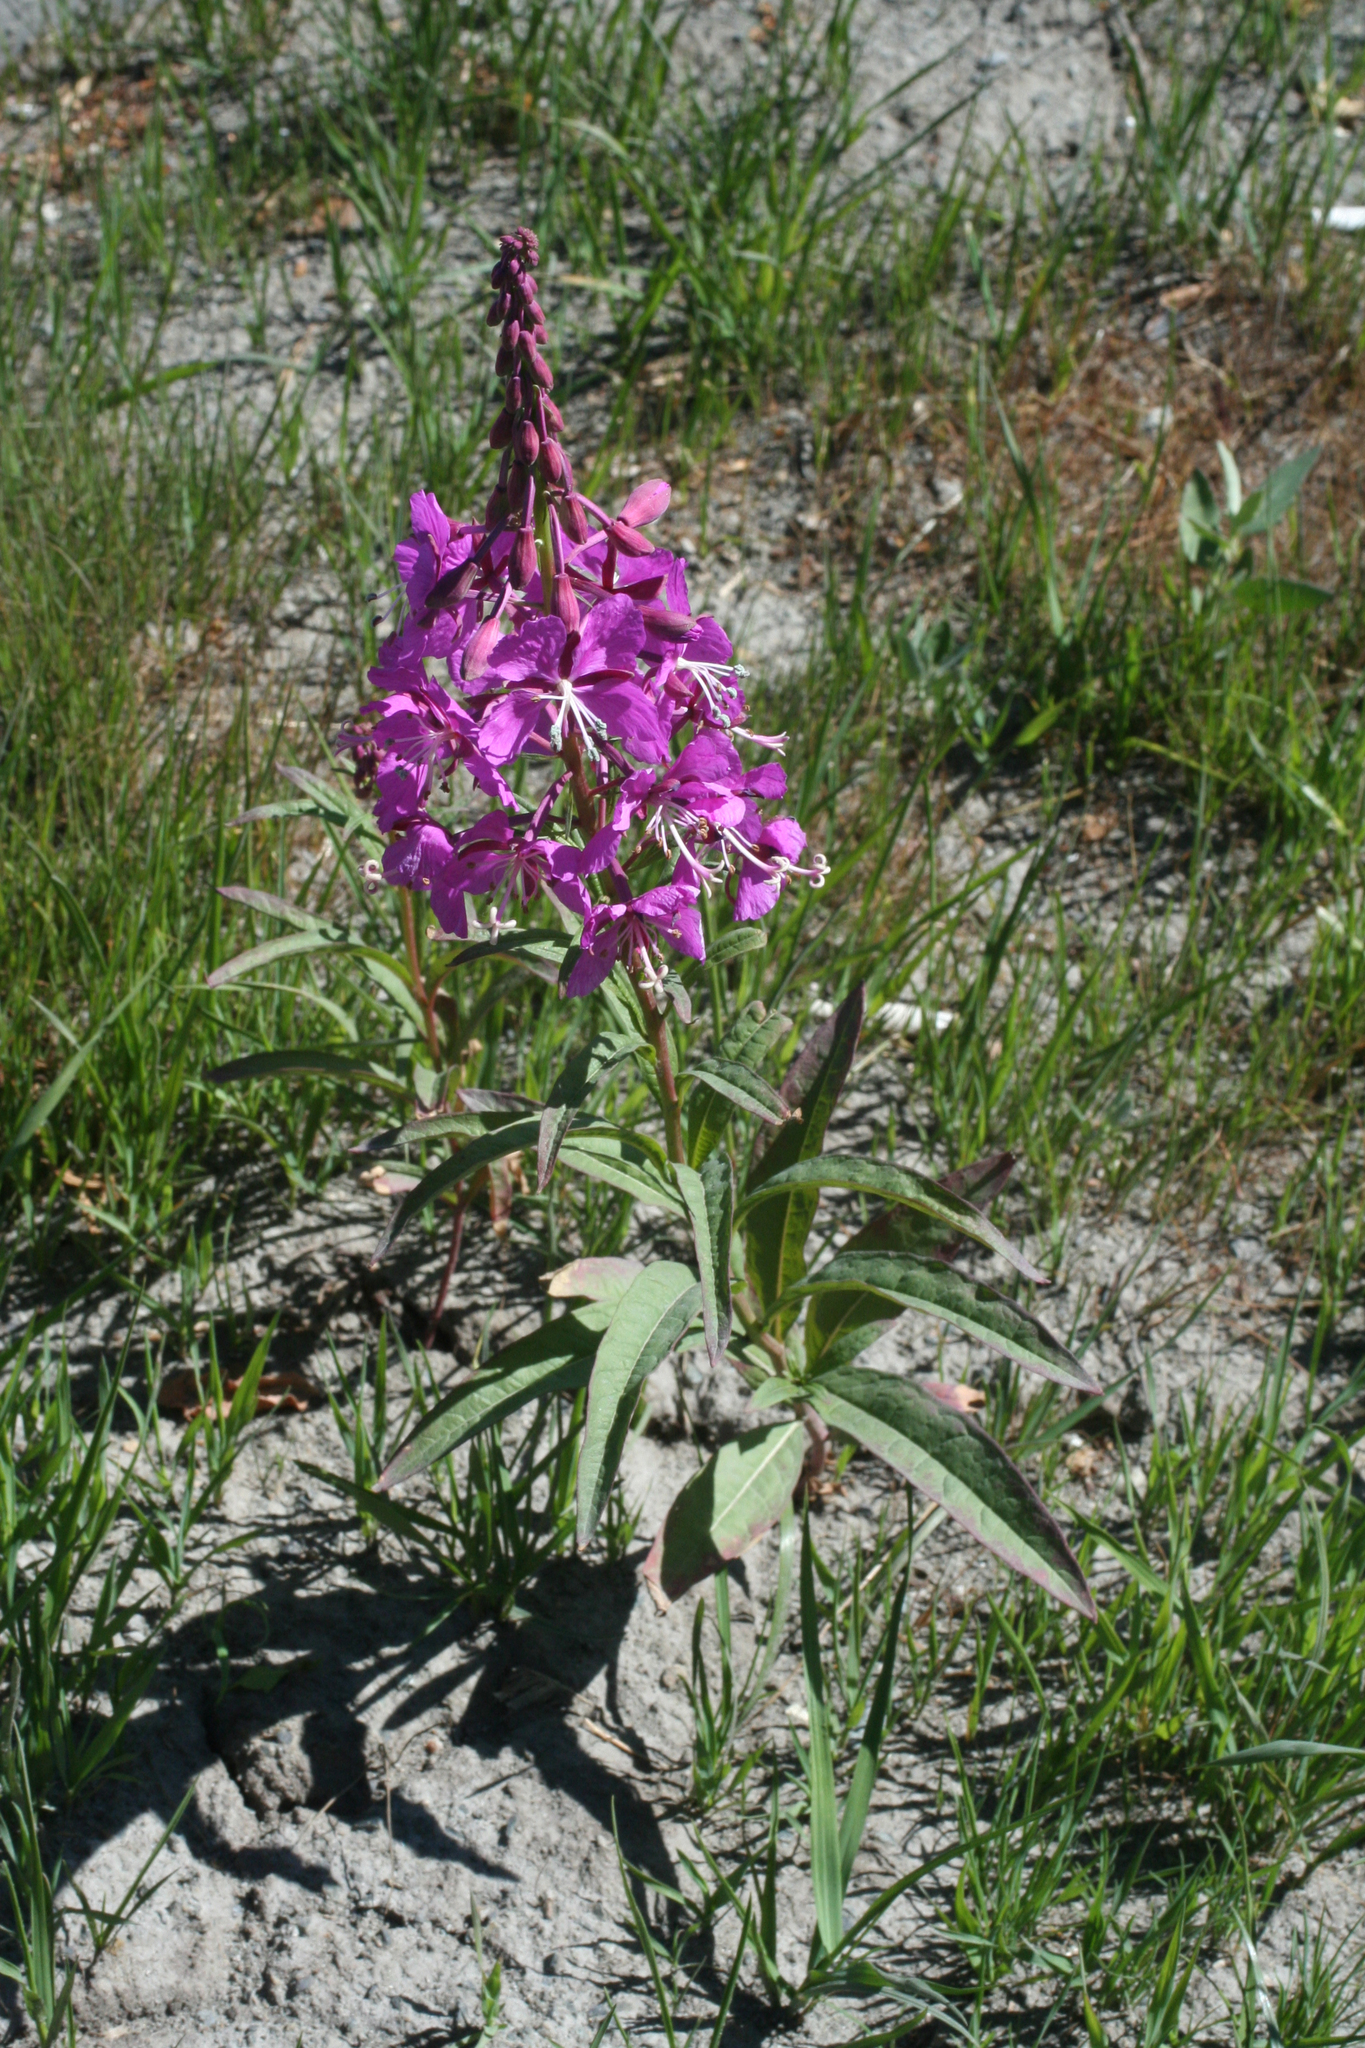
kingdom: Plantae
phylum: Tracheophyta
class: Magnoliopsida
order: Myrtales
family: Onagraceae
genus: Chamaenerion
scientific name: Chamaenerion angustifolium
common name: Fireweed
